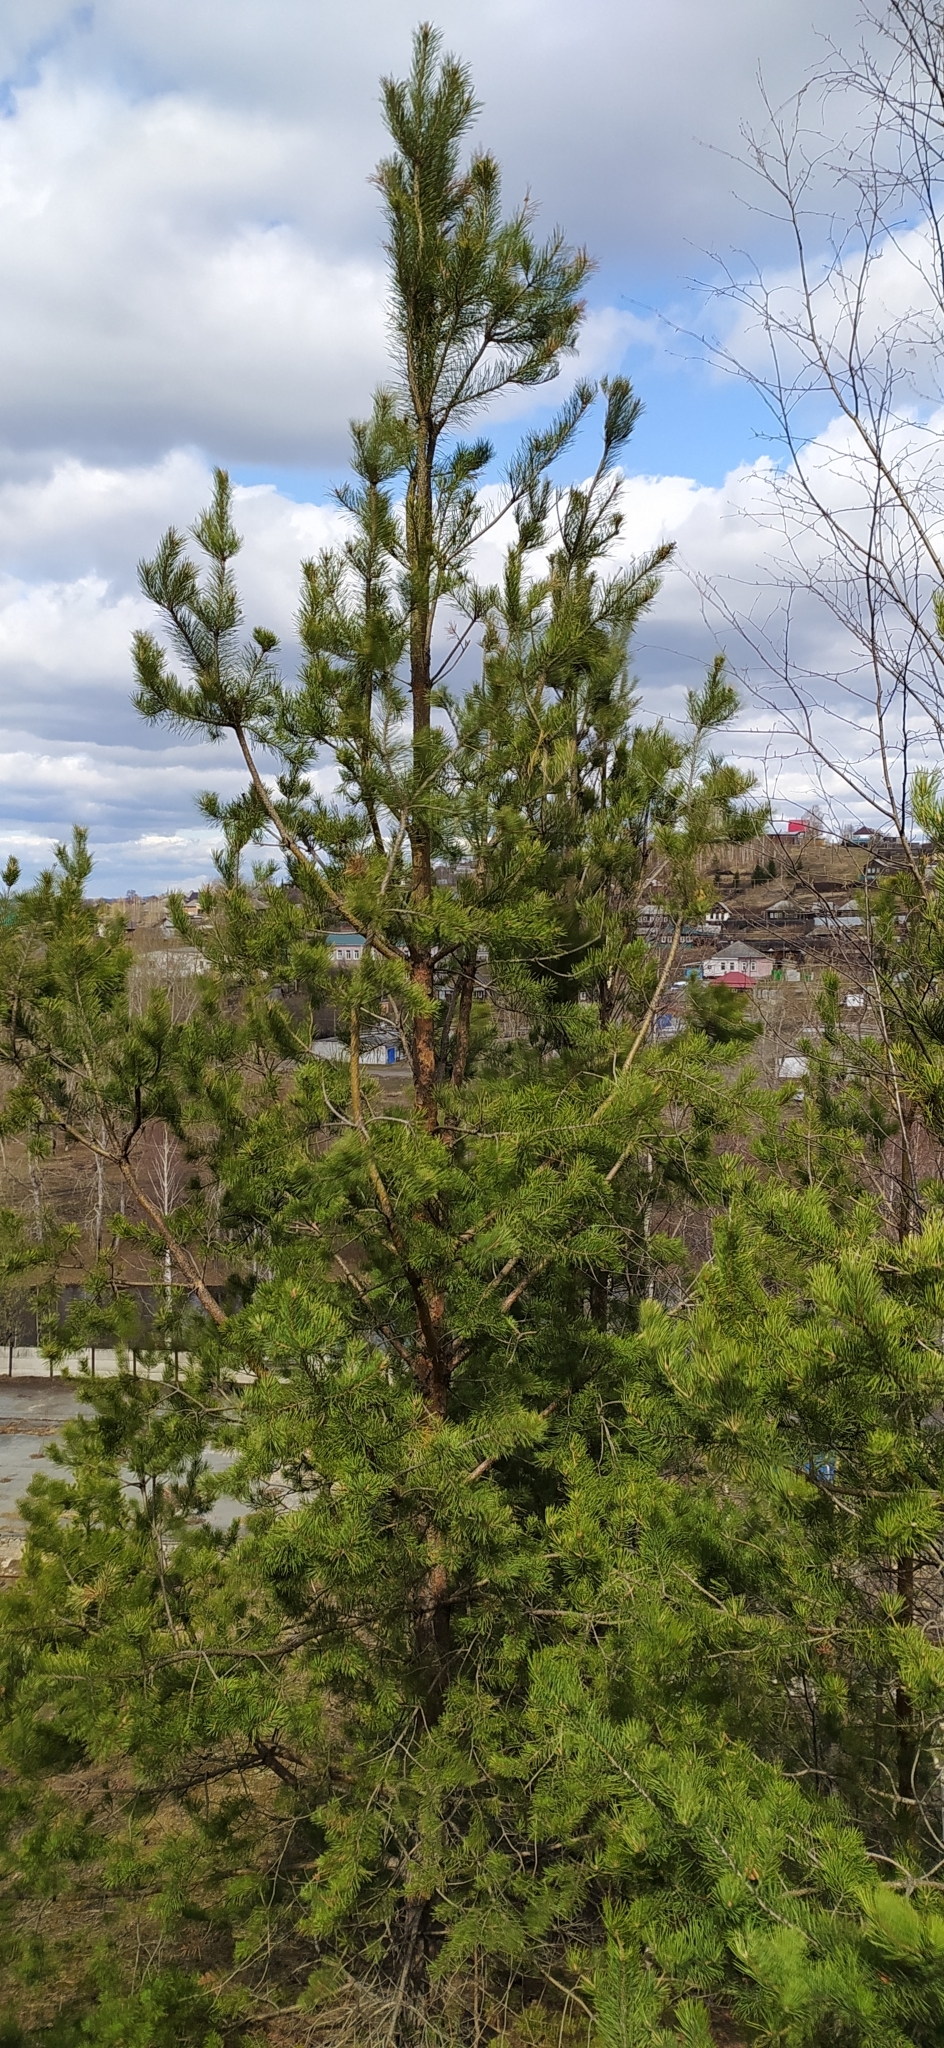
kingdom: Plantae
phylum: Tracheophyta
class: Pinopsida
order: Pinales
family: Pinaceae
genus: Pinus
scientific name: Pinus sylvestris
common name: Scots pine
